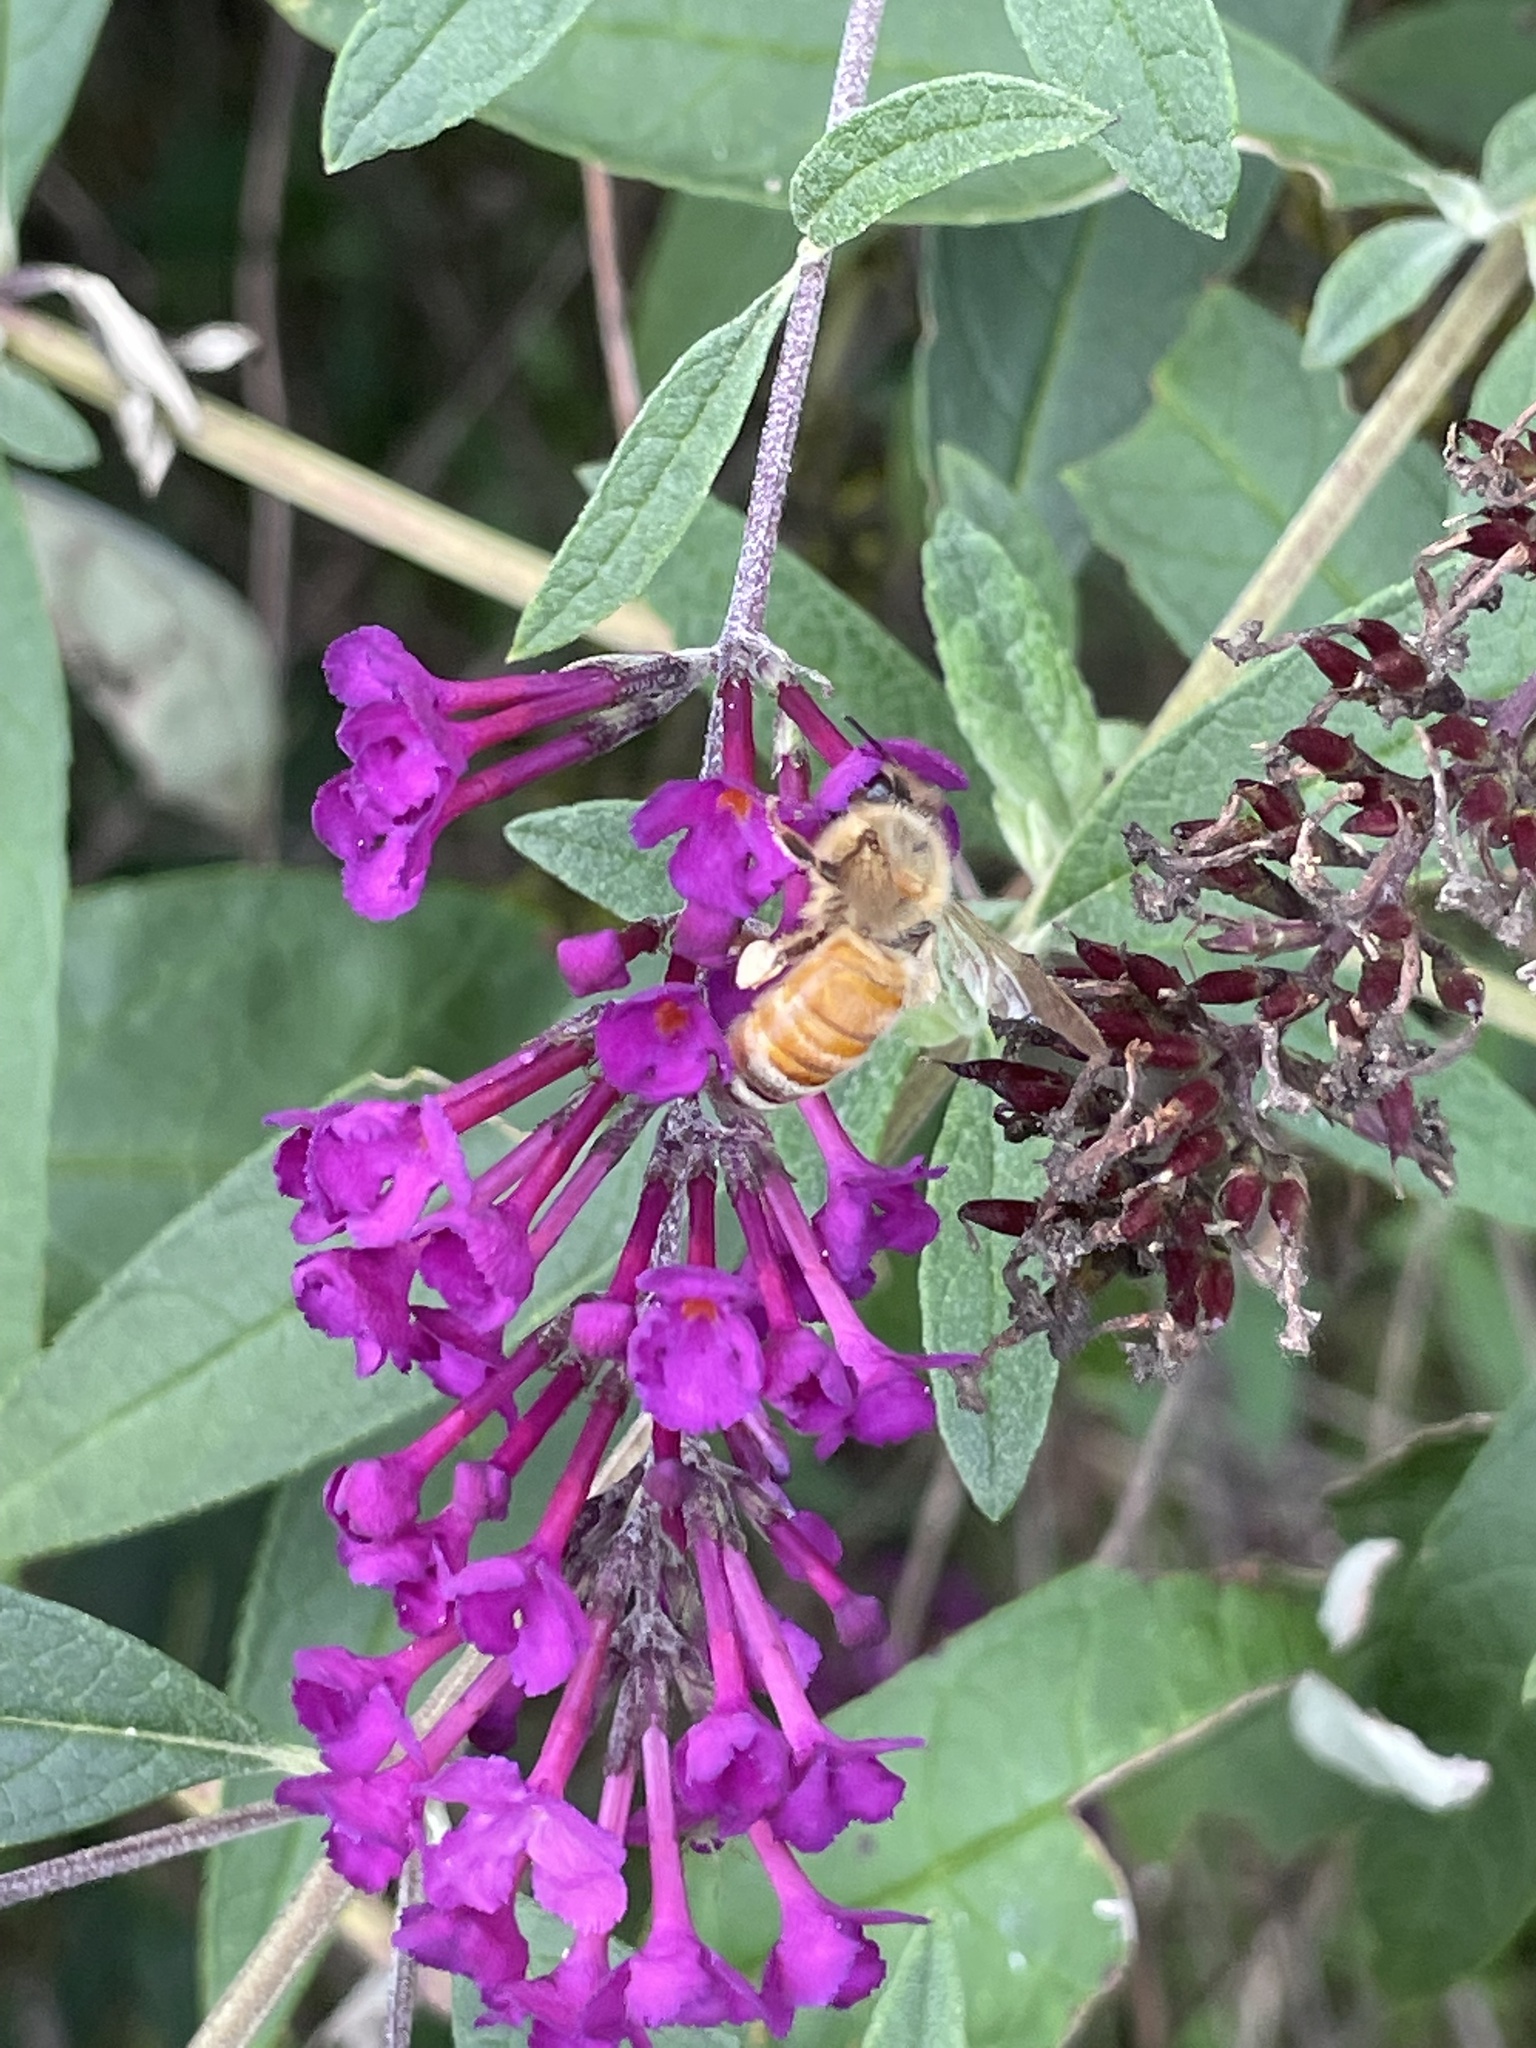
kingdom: Animalia
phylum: Arthropoda
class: Insecta
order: Hymenoptera
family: Apidae
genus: Apis
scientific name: Apis mellifera
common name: Honey bee
